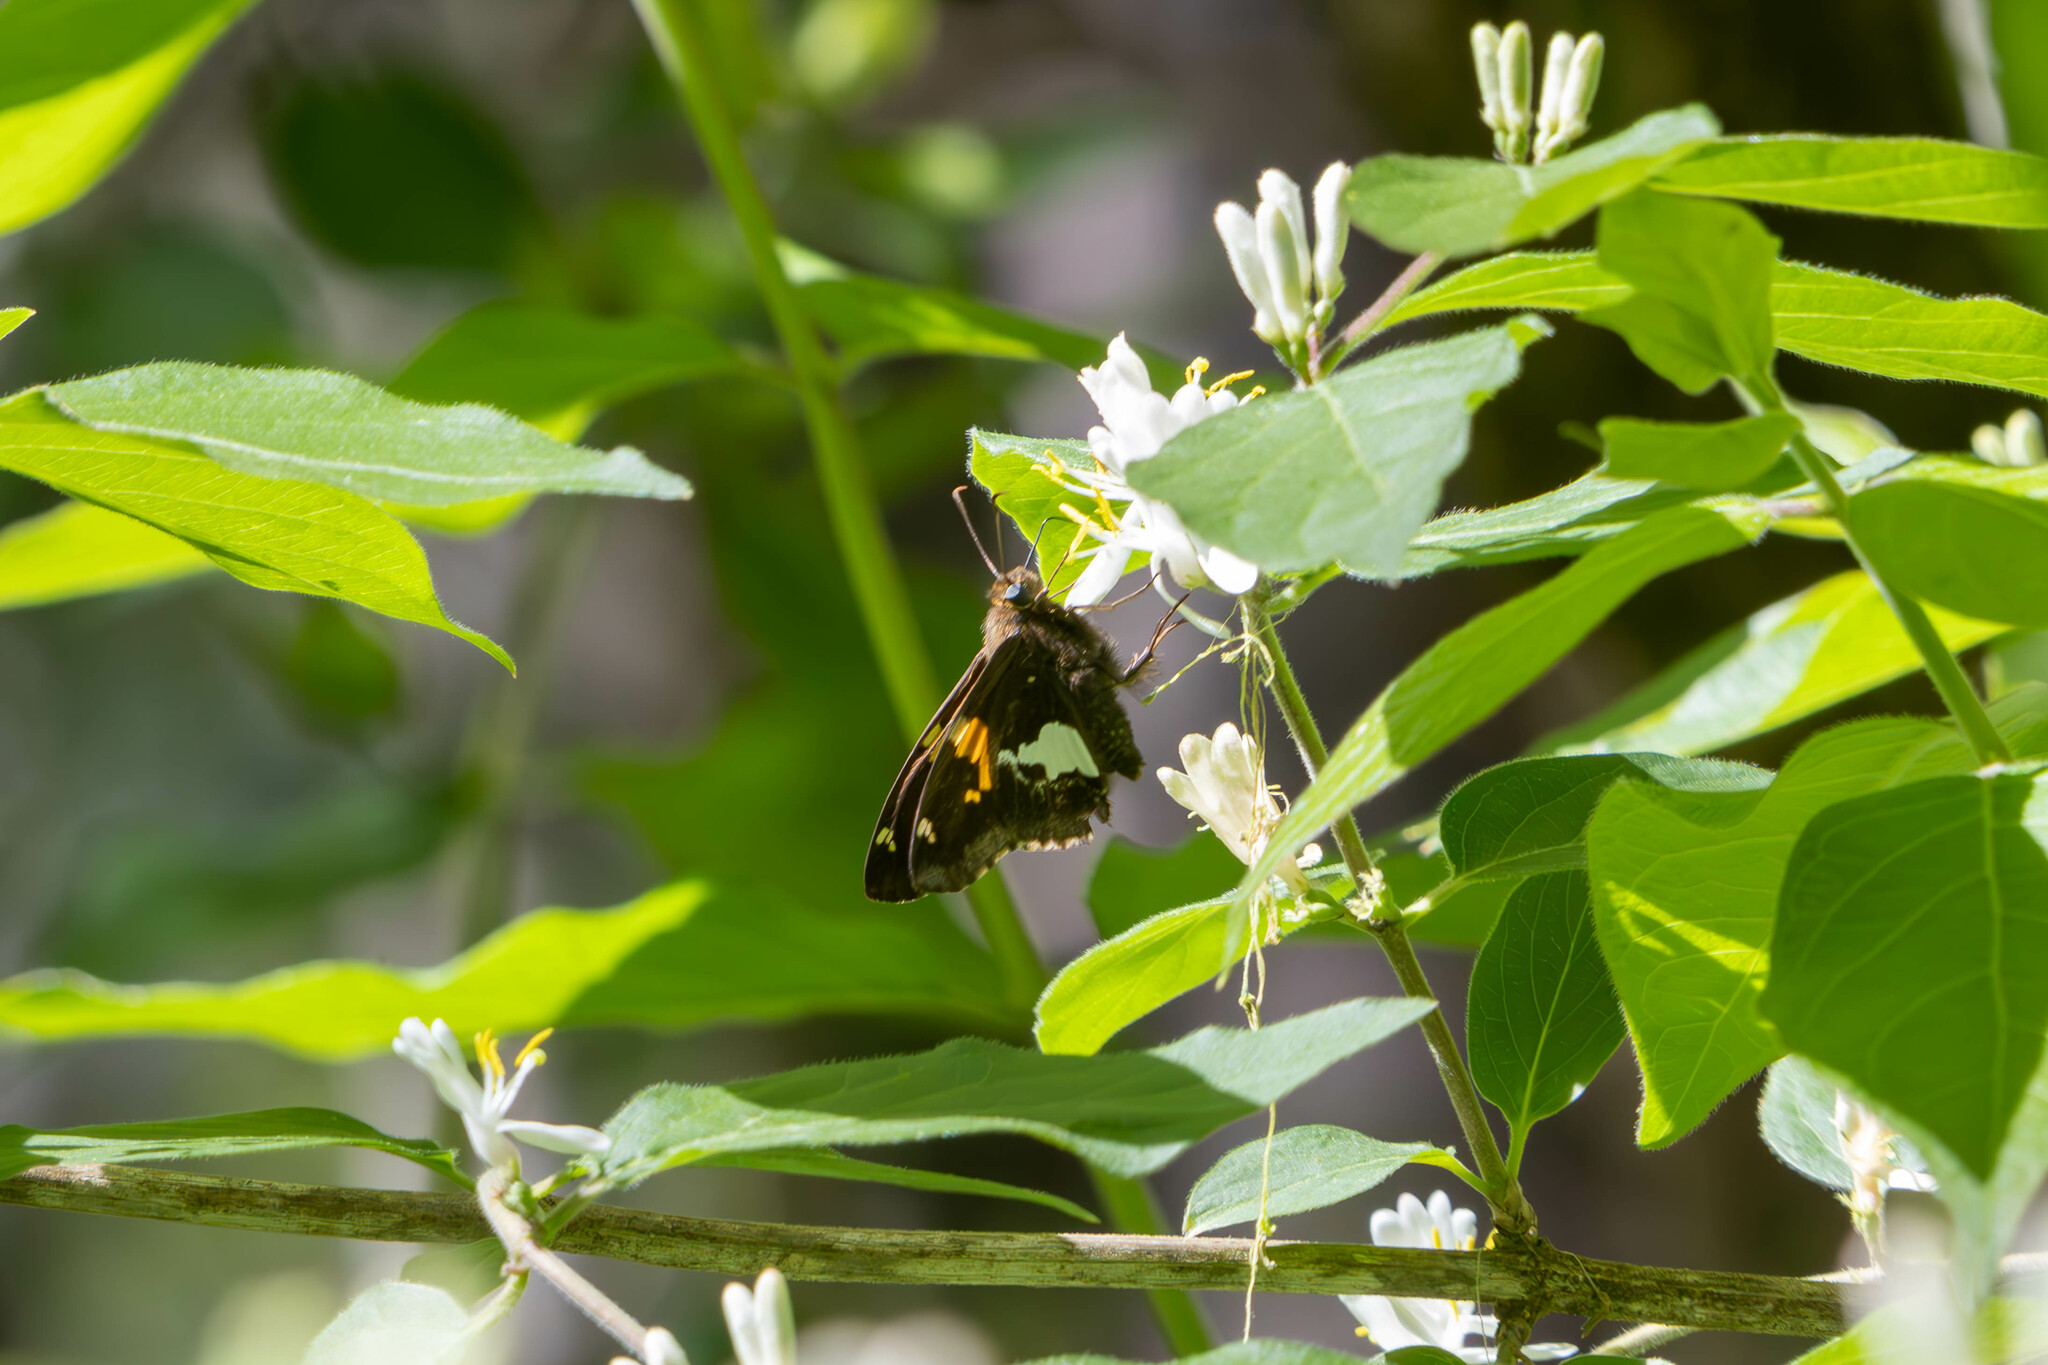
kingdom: Animalia
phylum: Arthropoda
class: Insecta
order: Lepidoptera
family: Hesperiidae
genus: Epargyreus
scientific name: Epargyreus clarus
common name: Silver-spotted skipper
